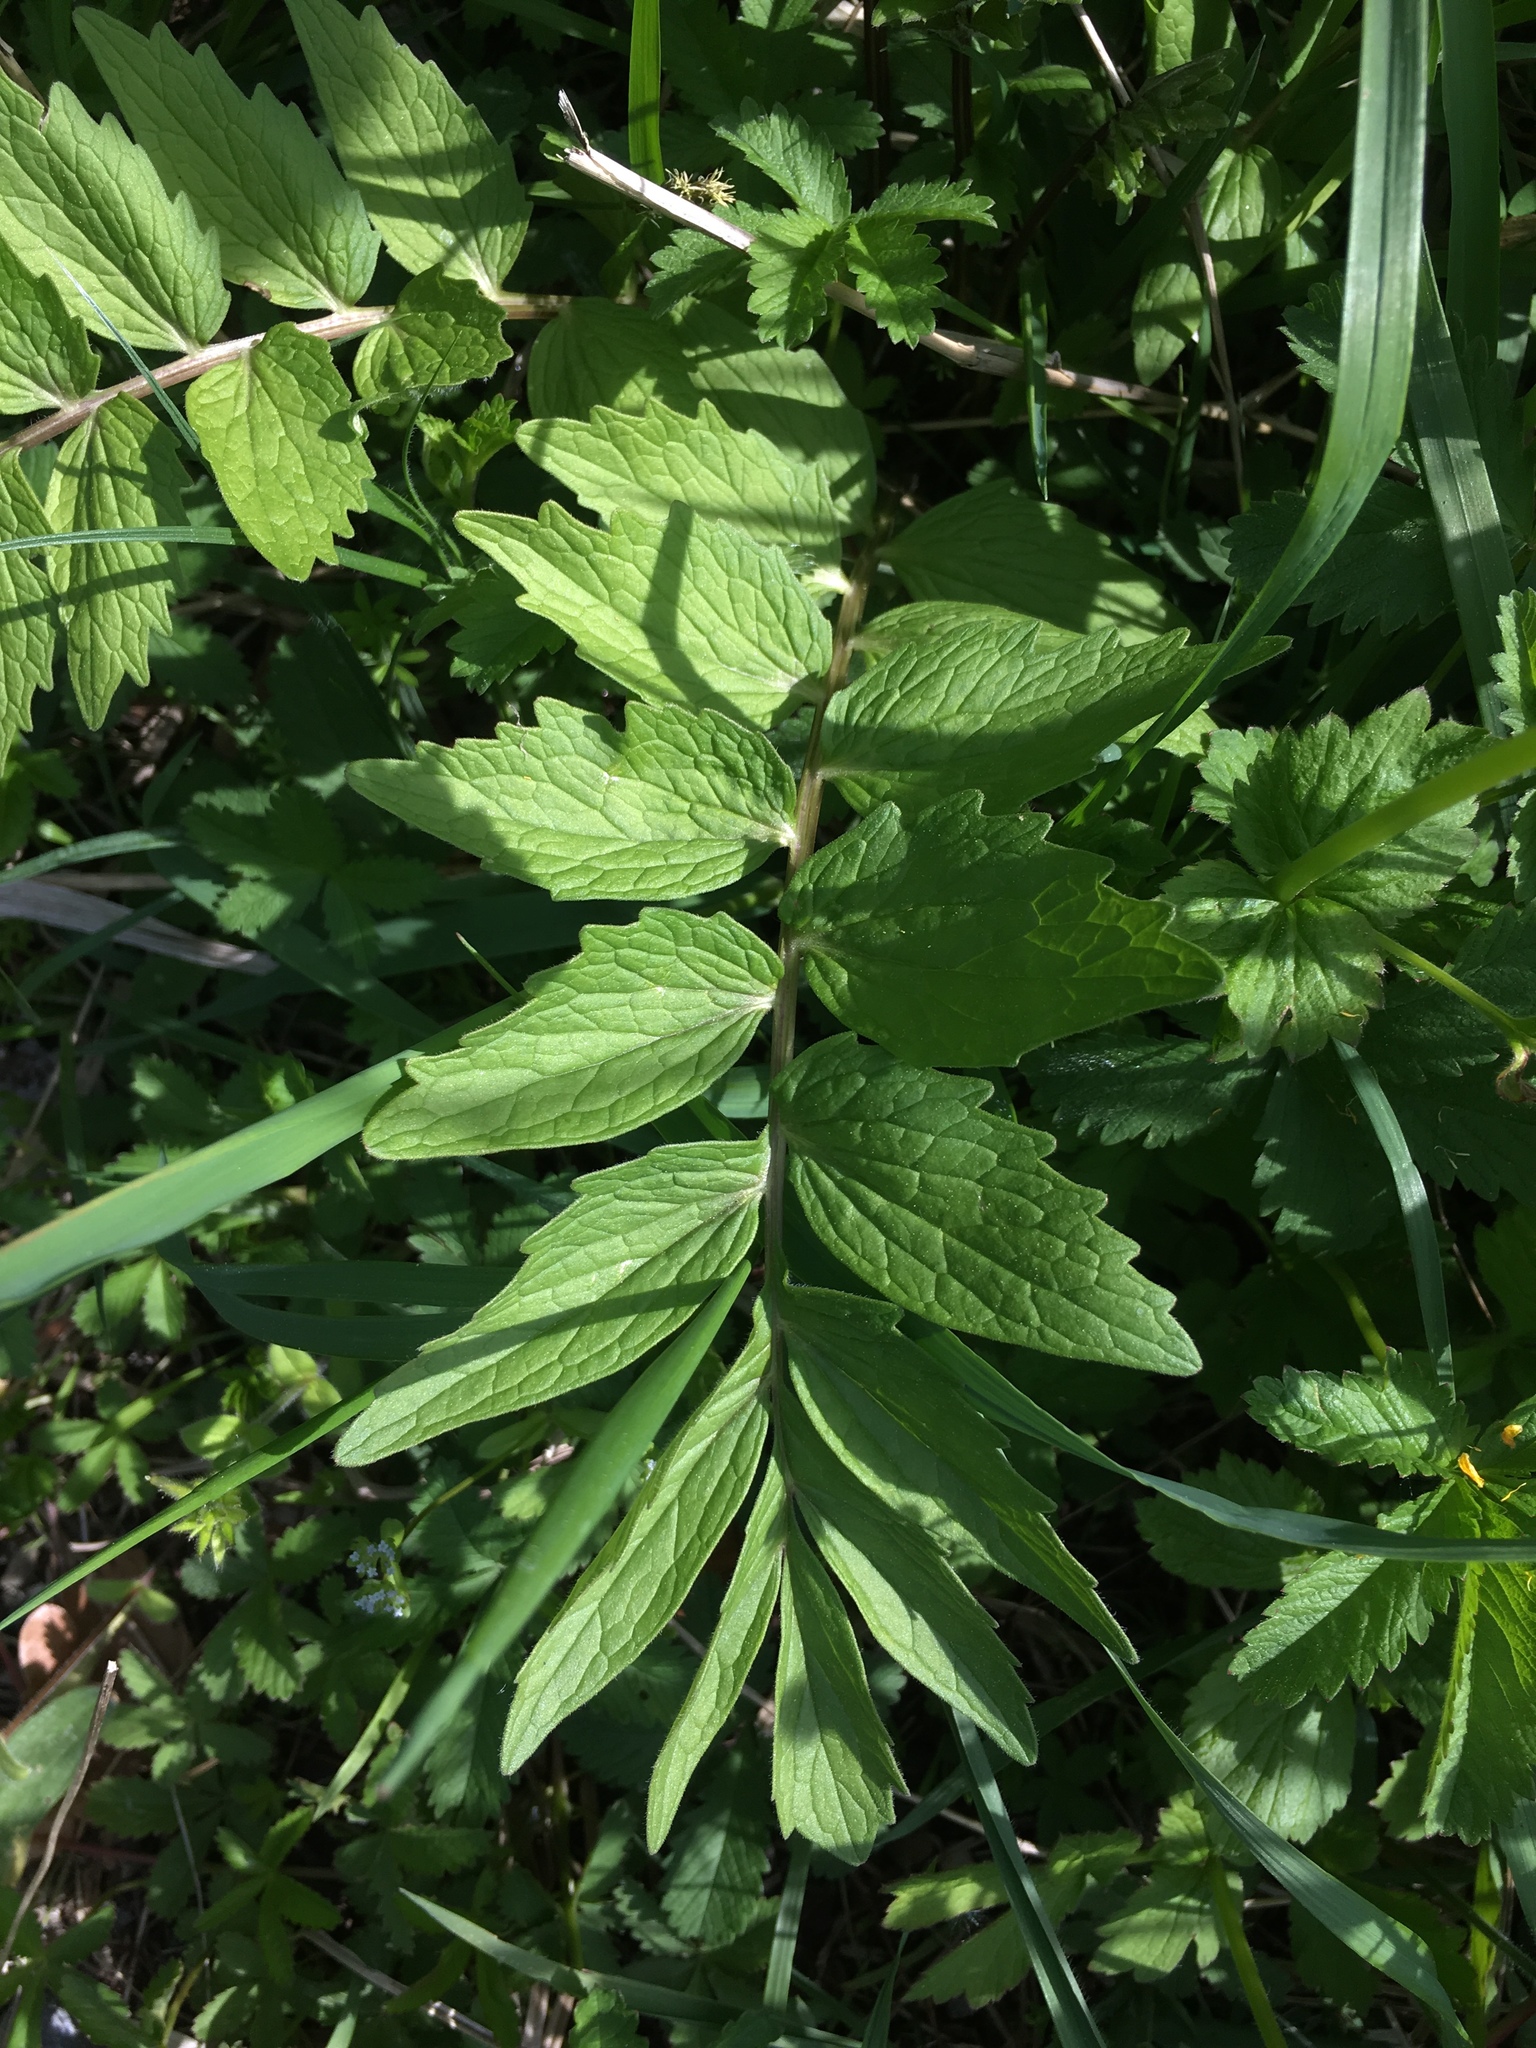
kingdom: Plantae
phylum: Tracheophyta
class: Magnoliopsida
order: Dipsacales
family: Caprifoliaceae
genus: Valeriana
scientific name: Valeriana officinalis
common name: Common valerian
